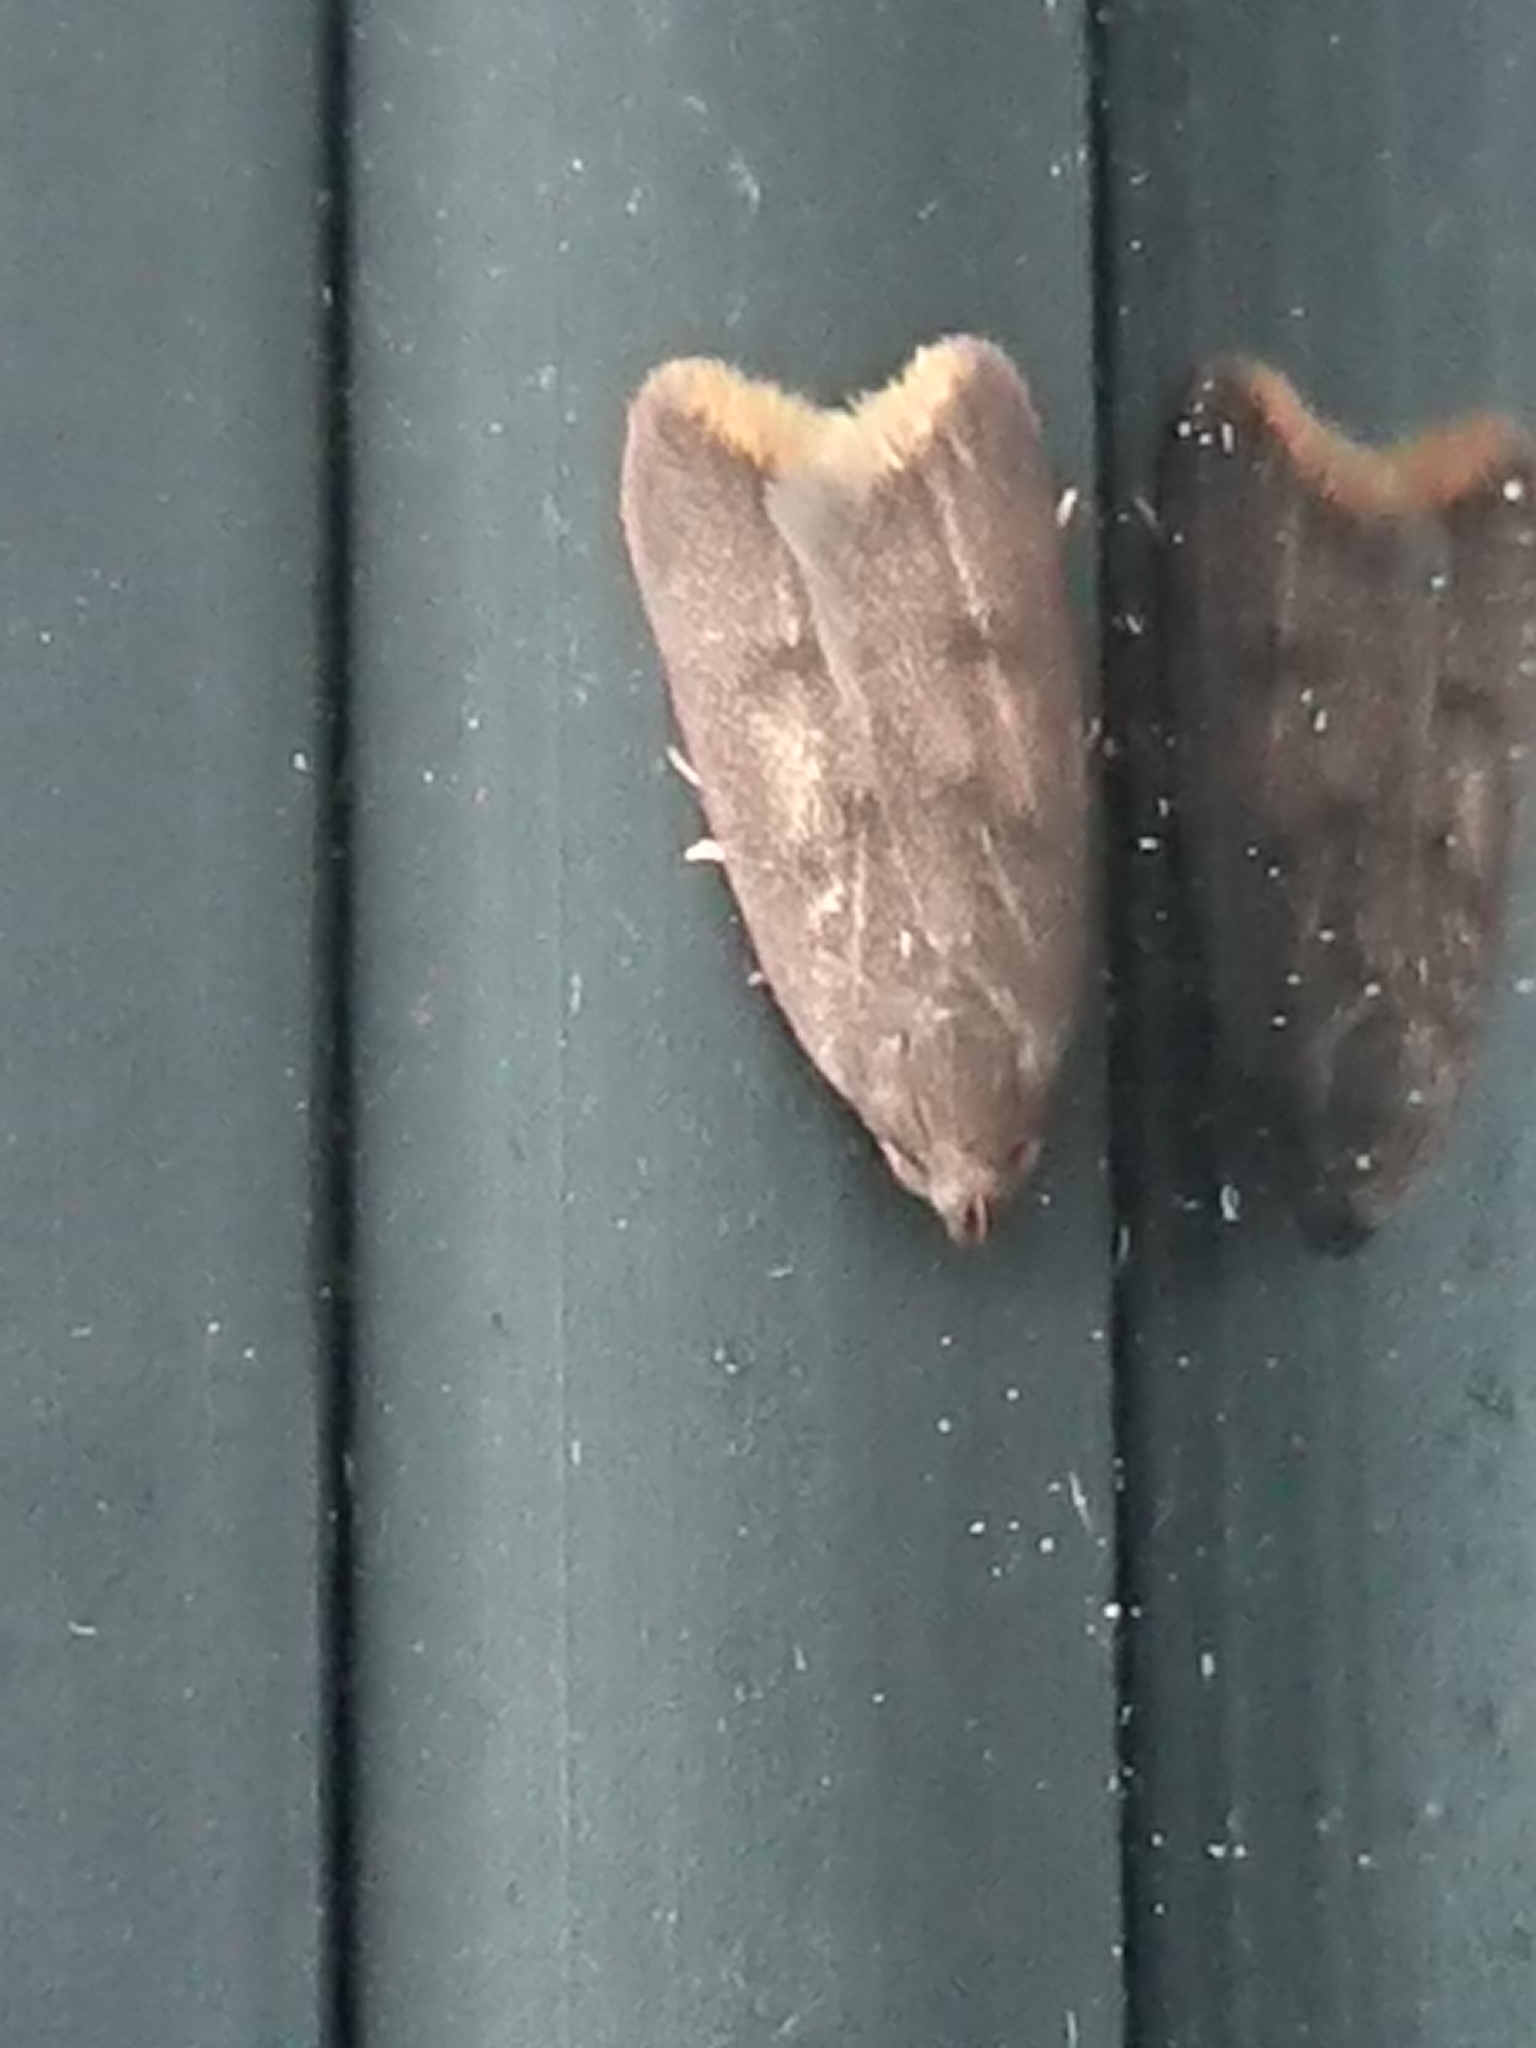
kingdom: Animalia
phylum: Arthropoda
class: Insecta
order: Lepidoptera
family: Oecophoridae
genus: Tachystola
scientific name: Tachystola acroxantha
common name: Ruddy streak
